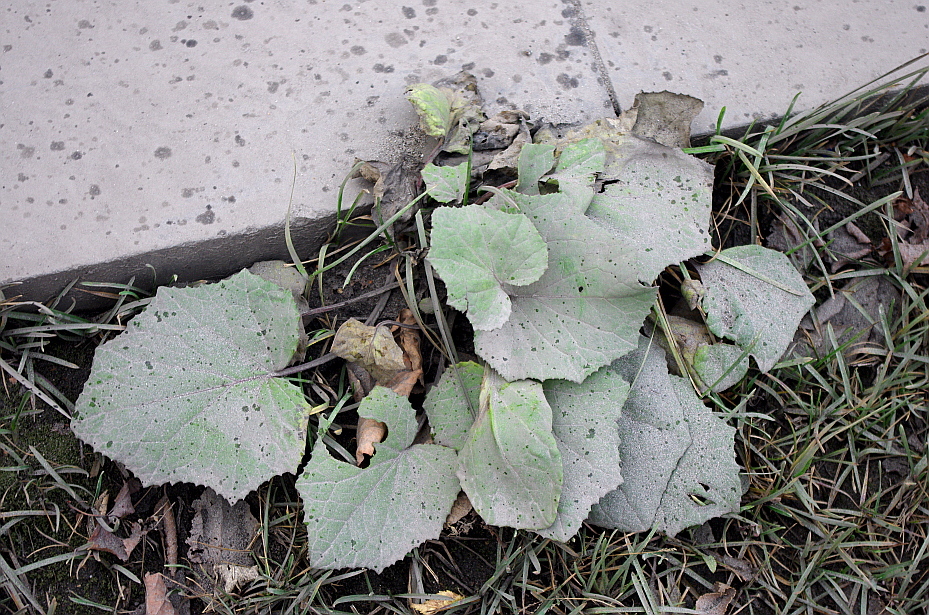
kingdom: Plantae
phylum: Tracheophyta
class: Magnoliopsida
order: Asterales
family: Asteraceae
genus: Tussilago
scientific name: Tussilago farfara
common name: Coltsfoot
